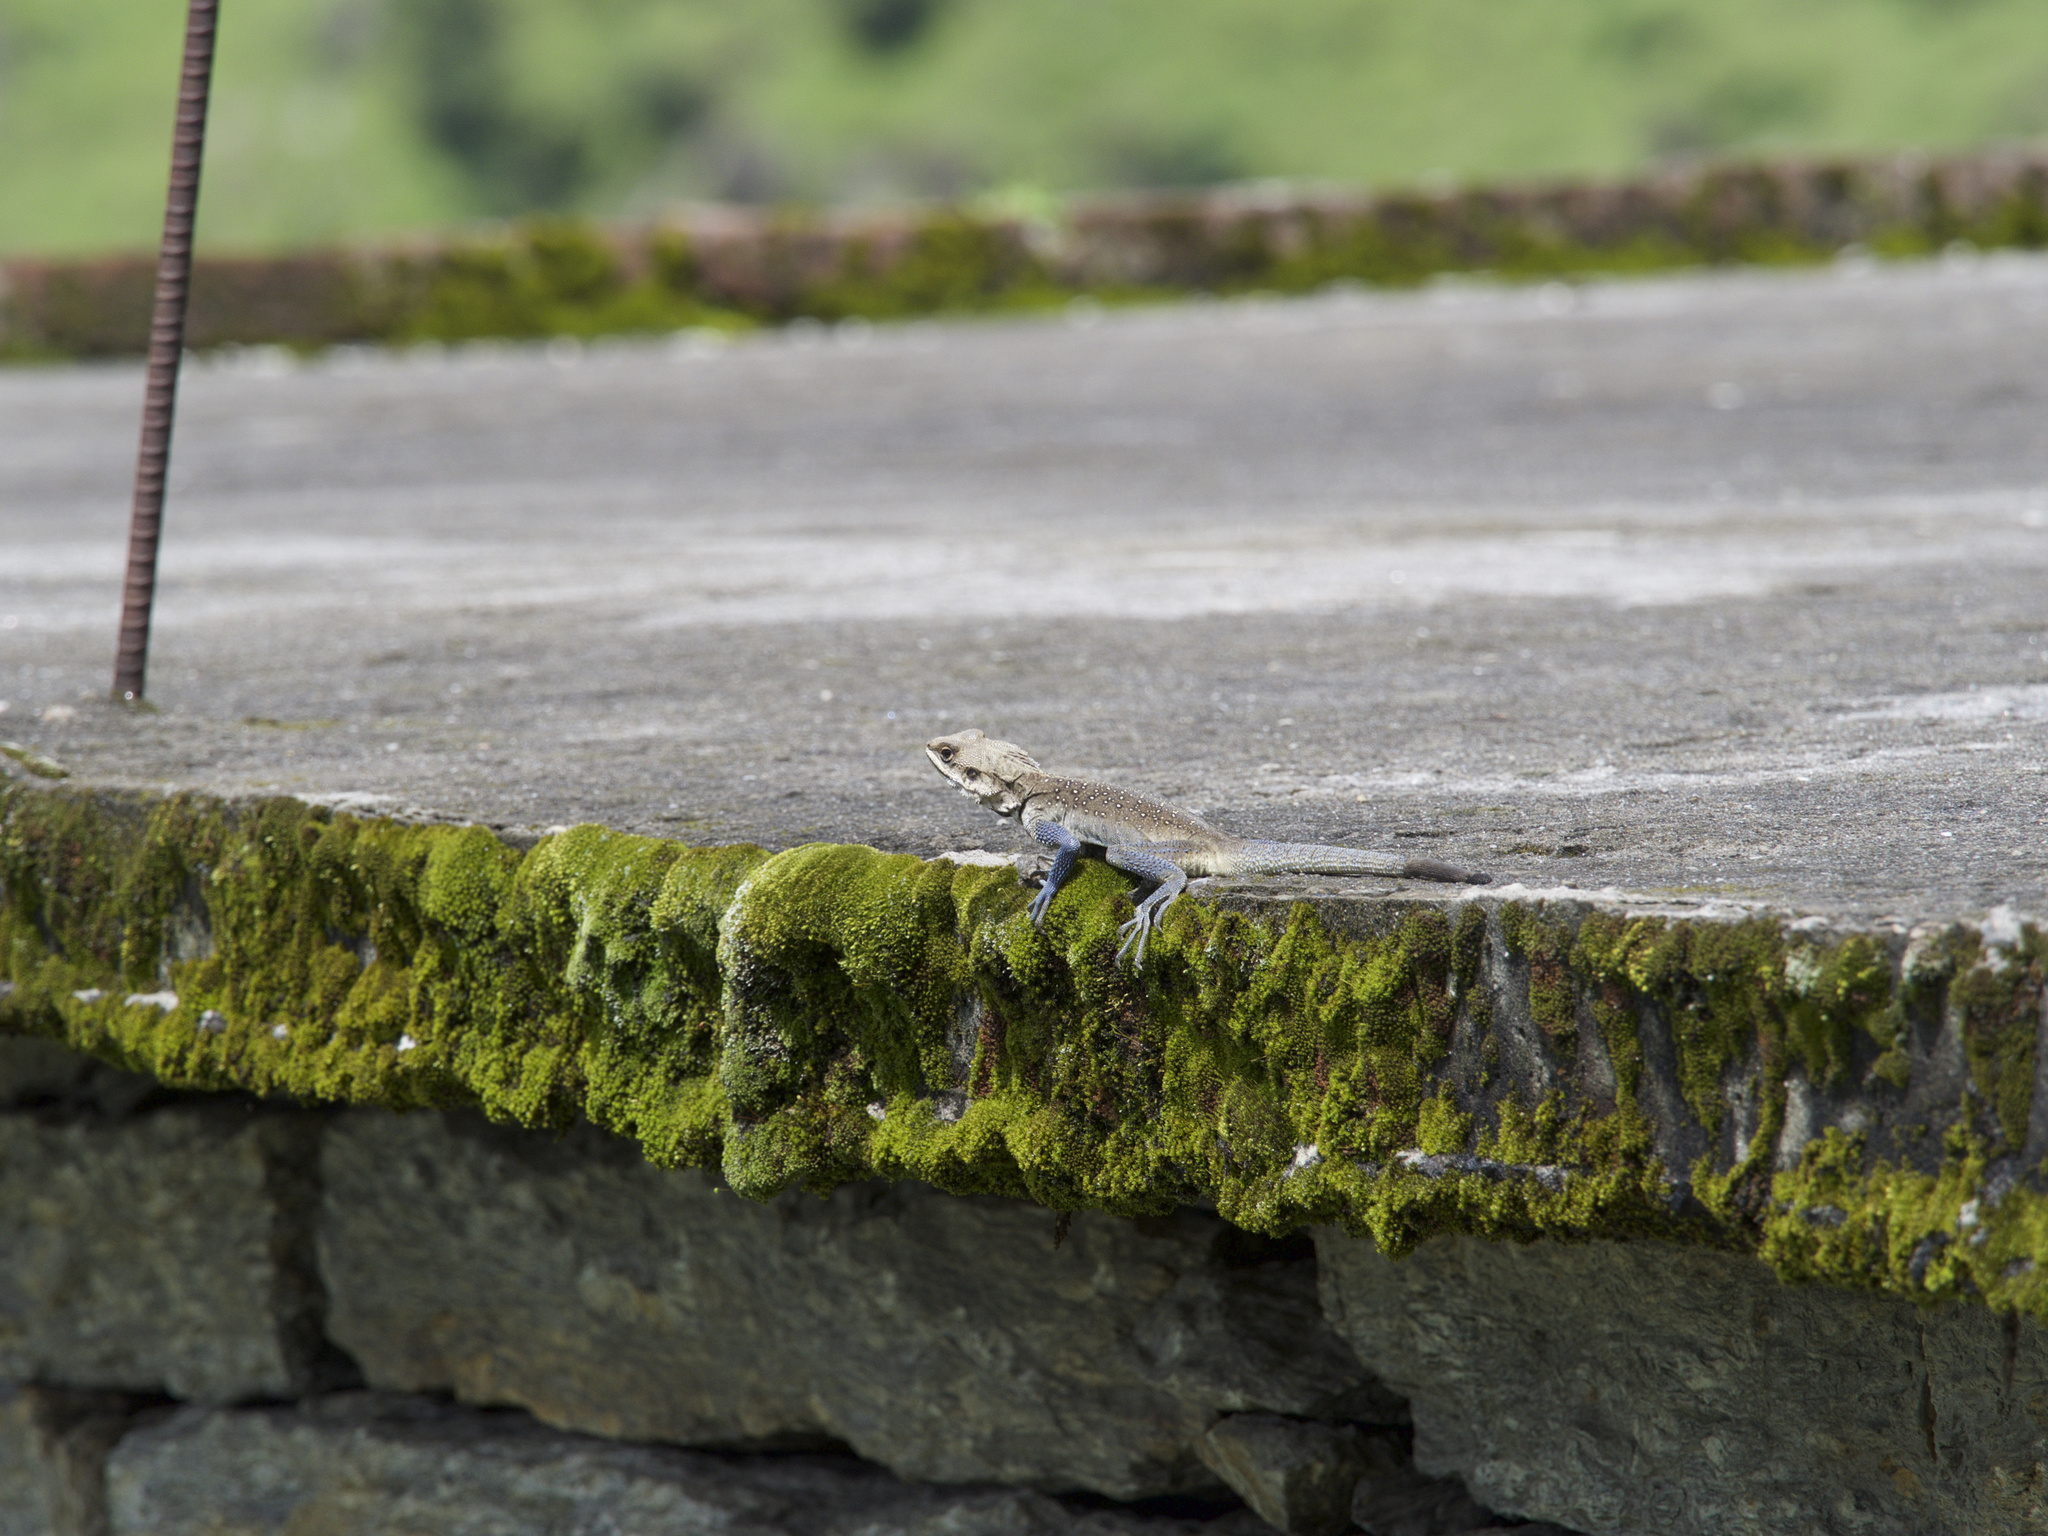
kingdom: Animalia
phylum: Chordata
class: Squamata
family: Agamidae
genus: Laudakia
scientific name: Laudakia tuberculata
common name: Kashmir rock agama
